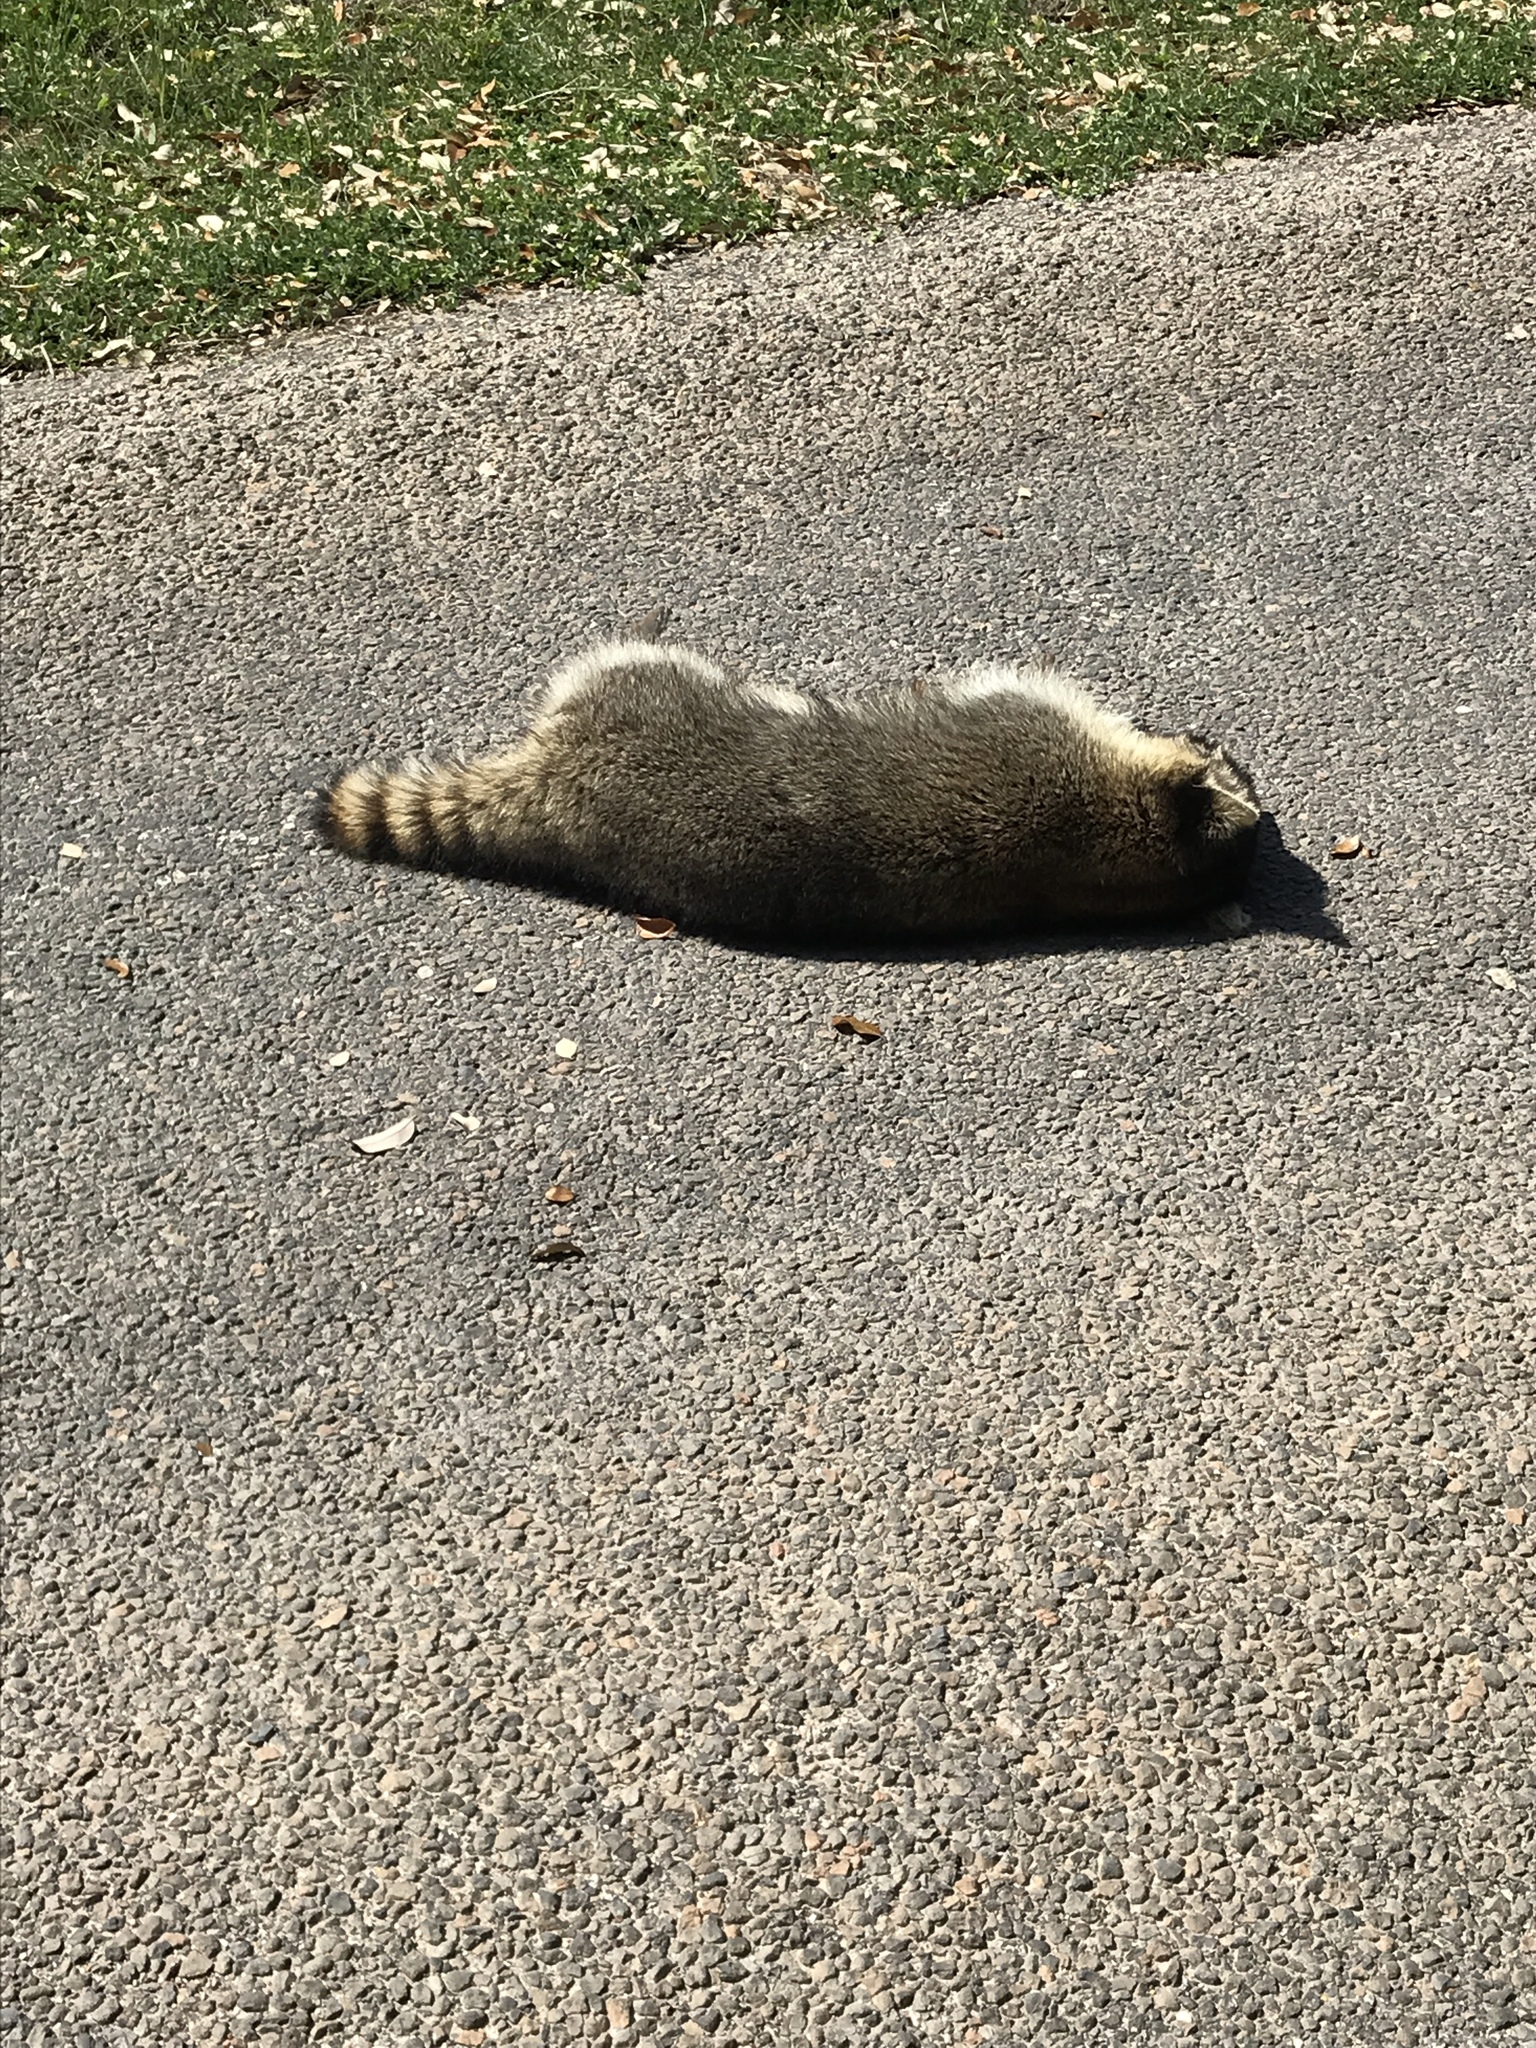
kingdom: Animalia
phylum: Chordata
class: Mammalia
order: Carnivora
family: Procyonidae
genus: Procyon
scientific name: Procyon lotor
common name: Raccoon
